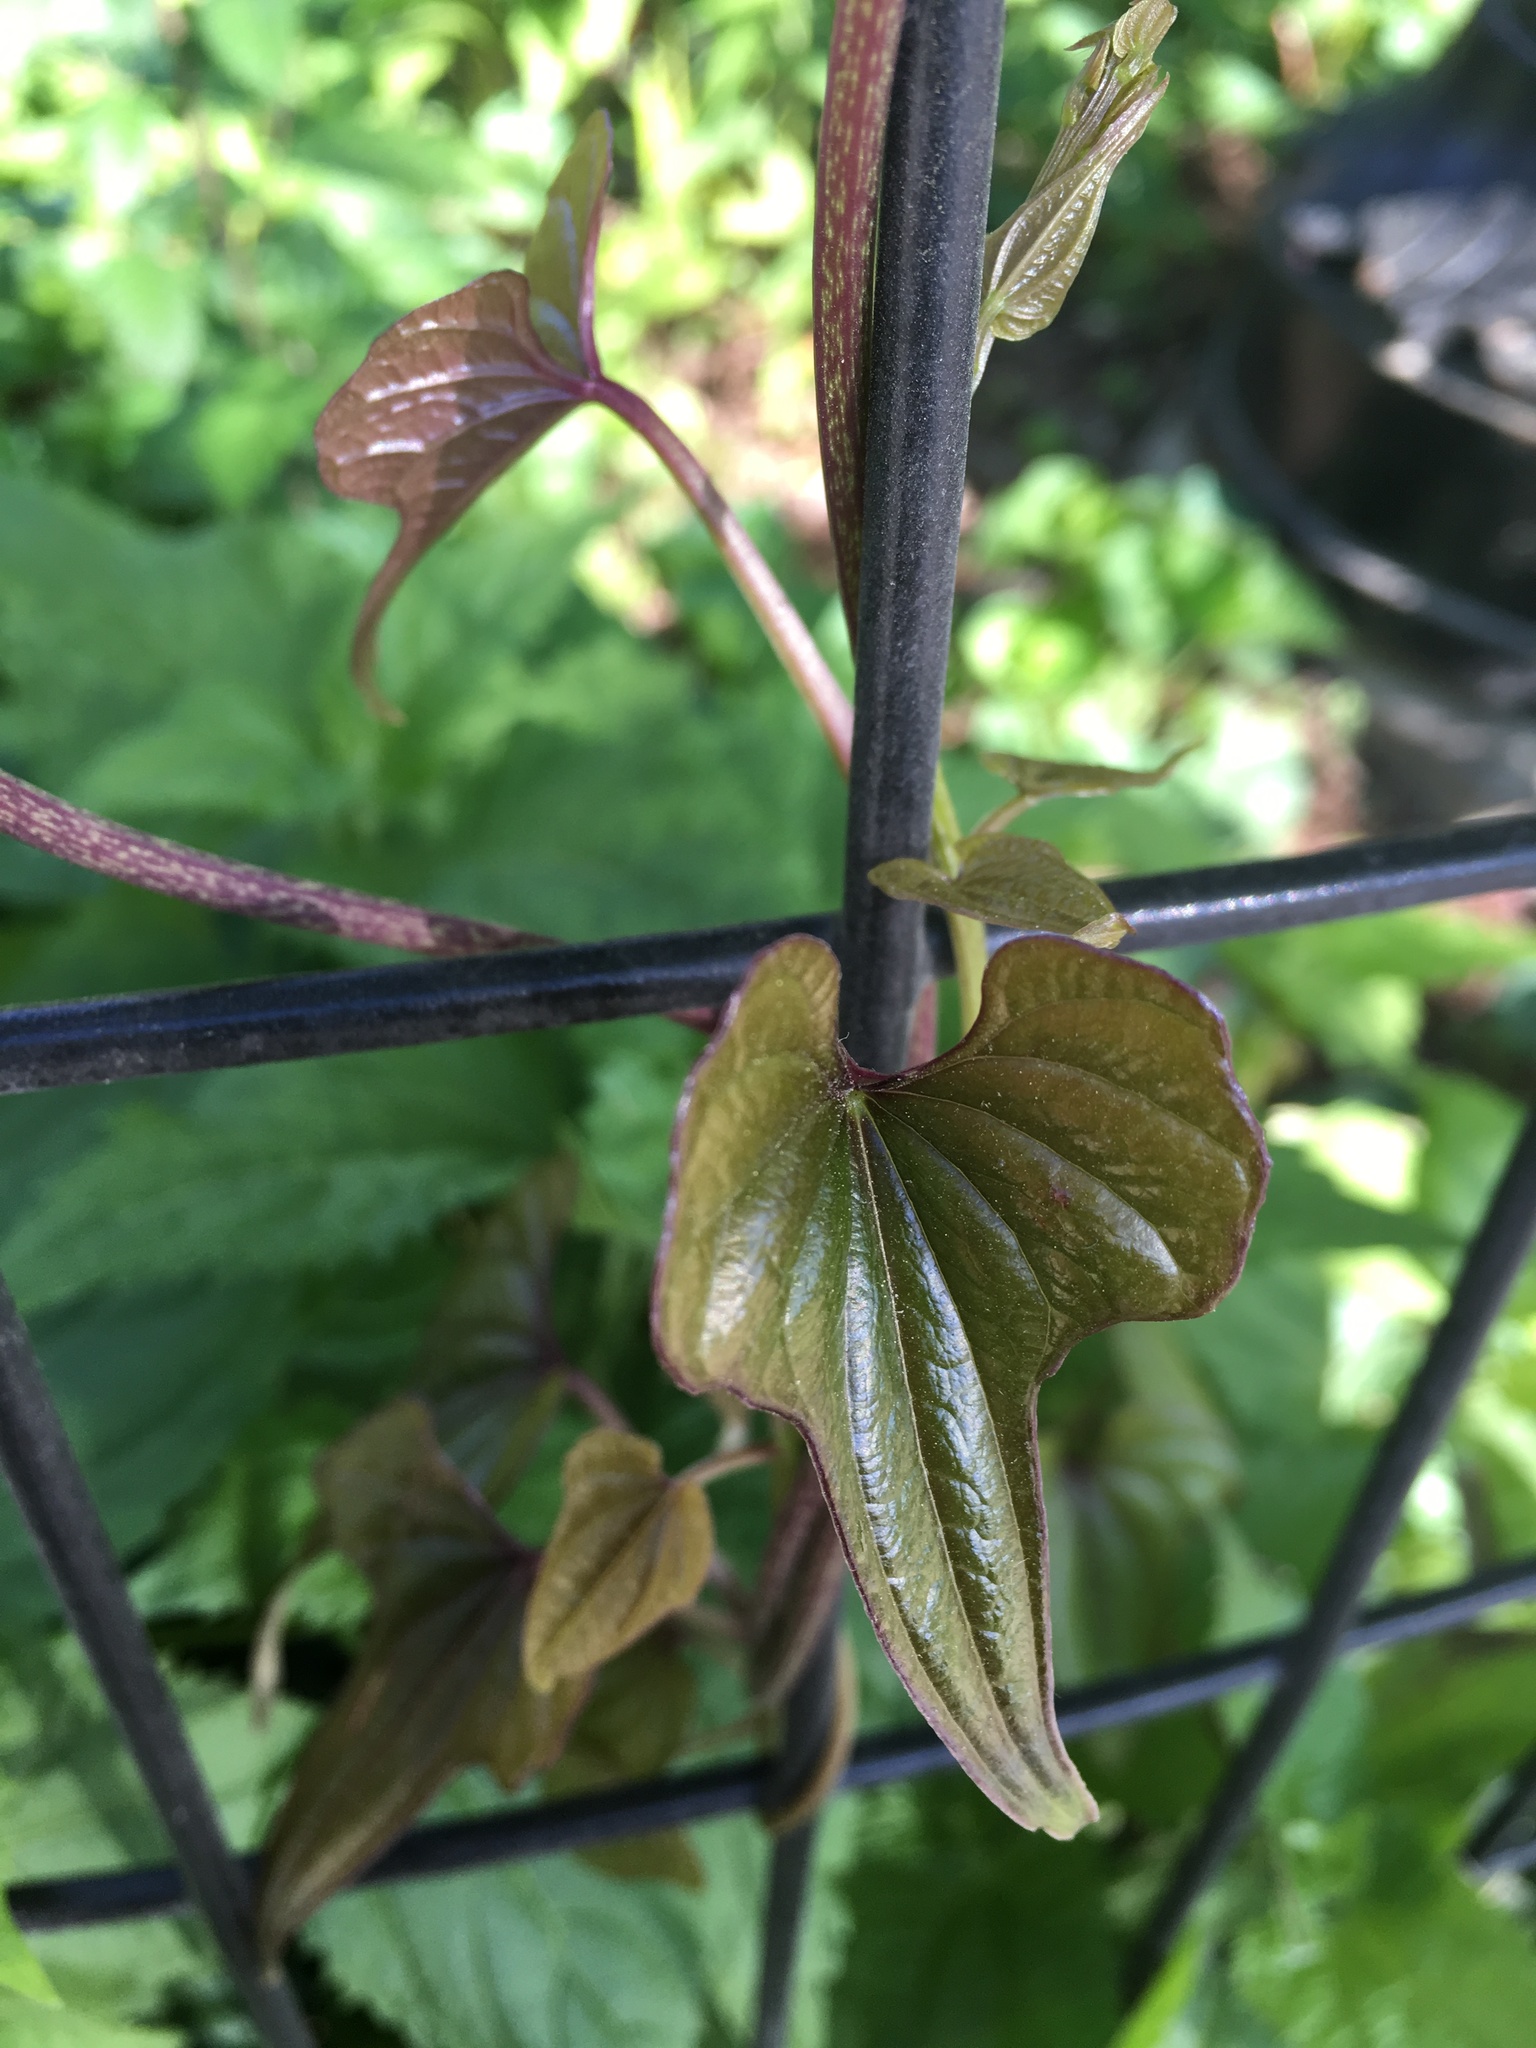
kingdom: Plantae
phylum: Tracheophyta
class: Liliopsida
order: Dioscoreales
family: Dioscoreaceae
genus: Dioscorea
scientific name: Dioscorea polystachya
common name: Chinese yam
